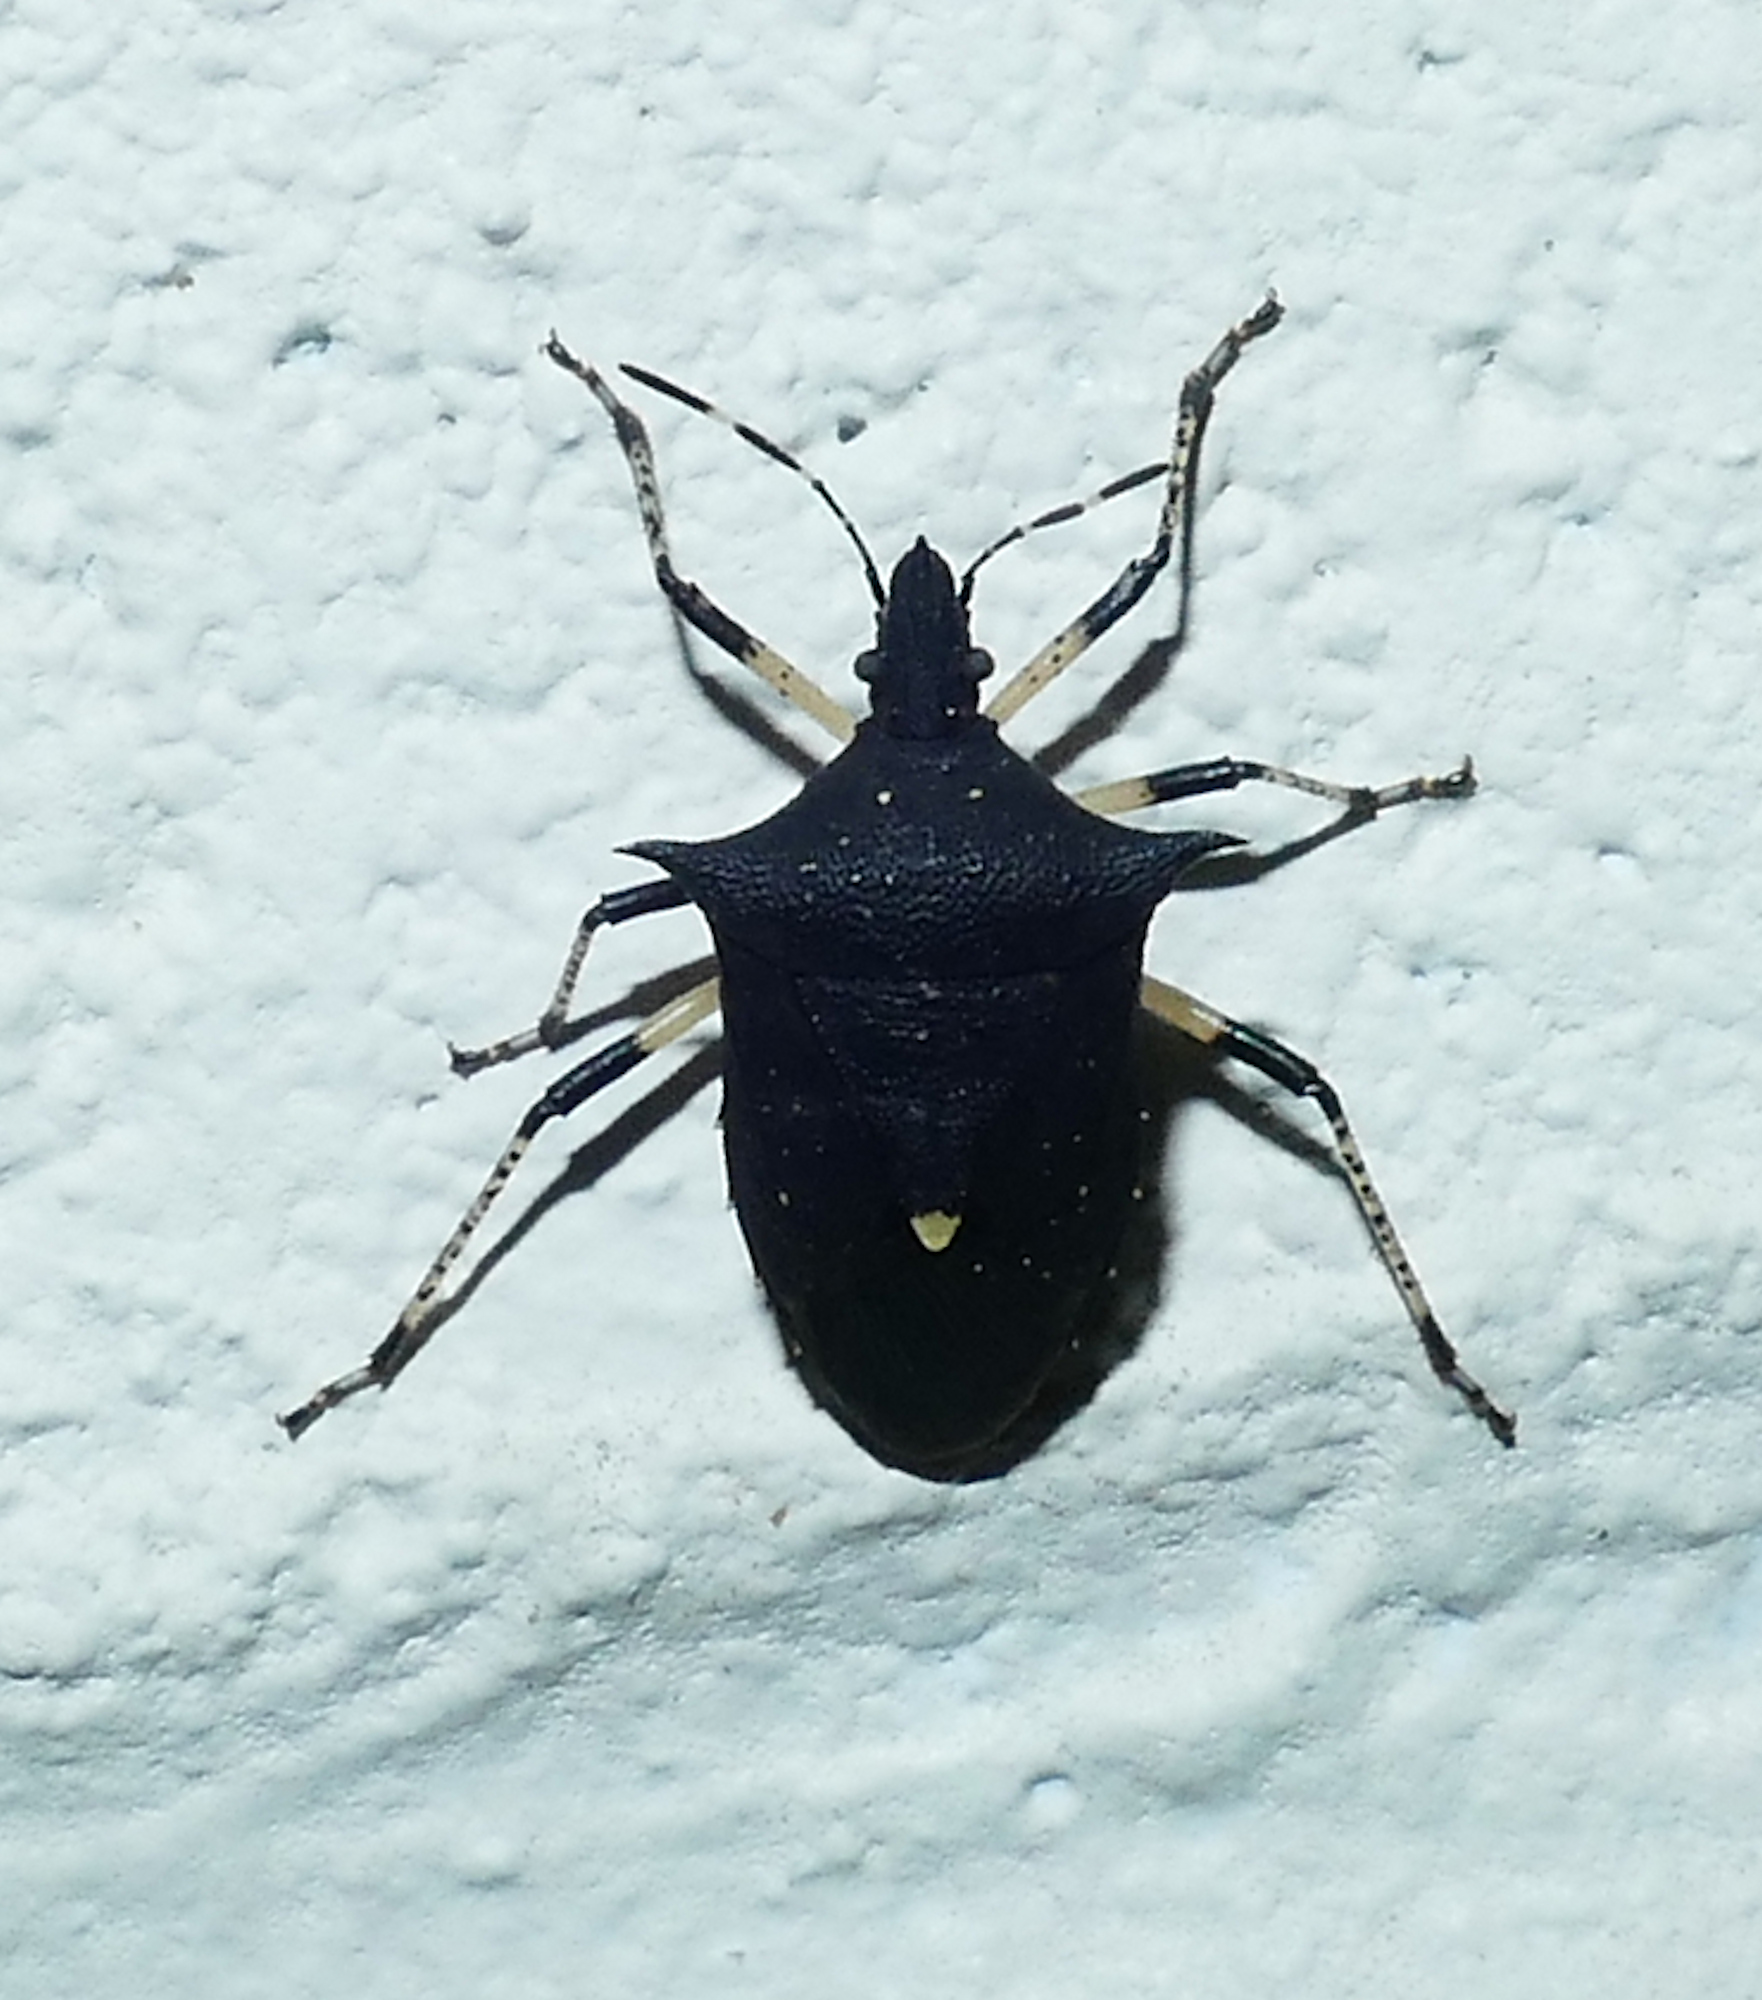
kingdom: Animalia
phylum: Arthropoda
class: Insecta
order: Hemiptera
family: Pentatomidae
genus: Proxys
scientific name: Proxys punctulatus
